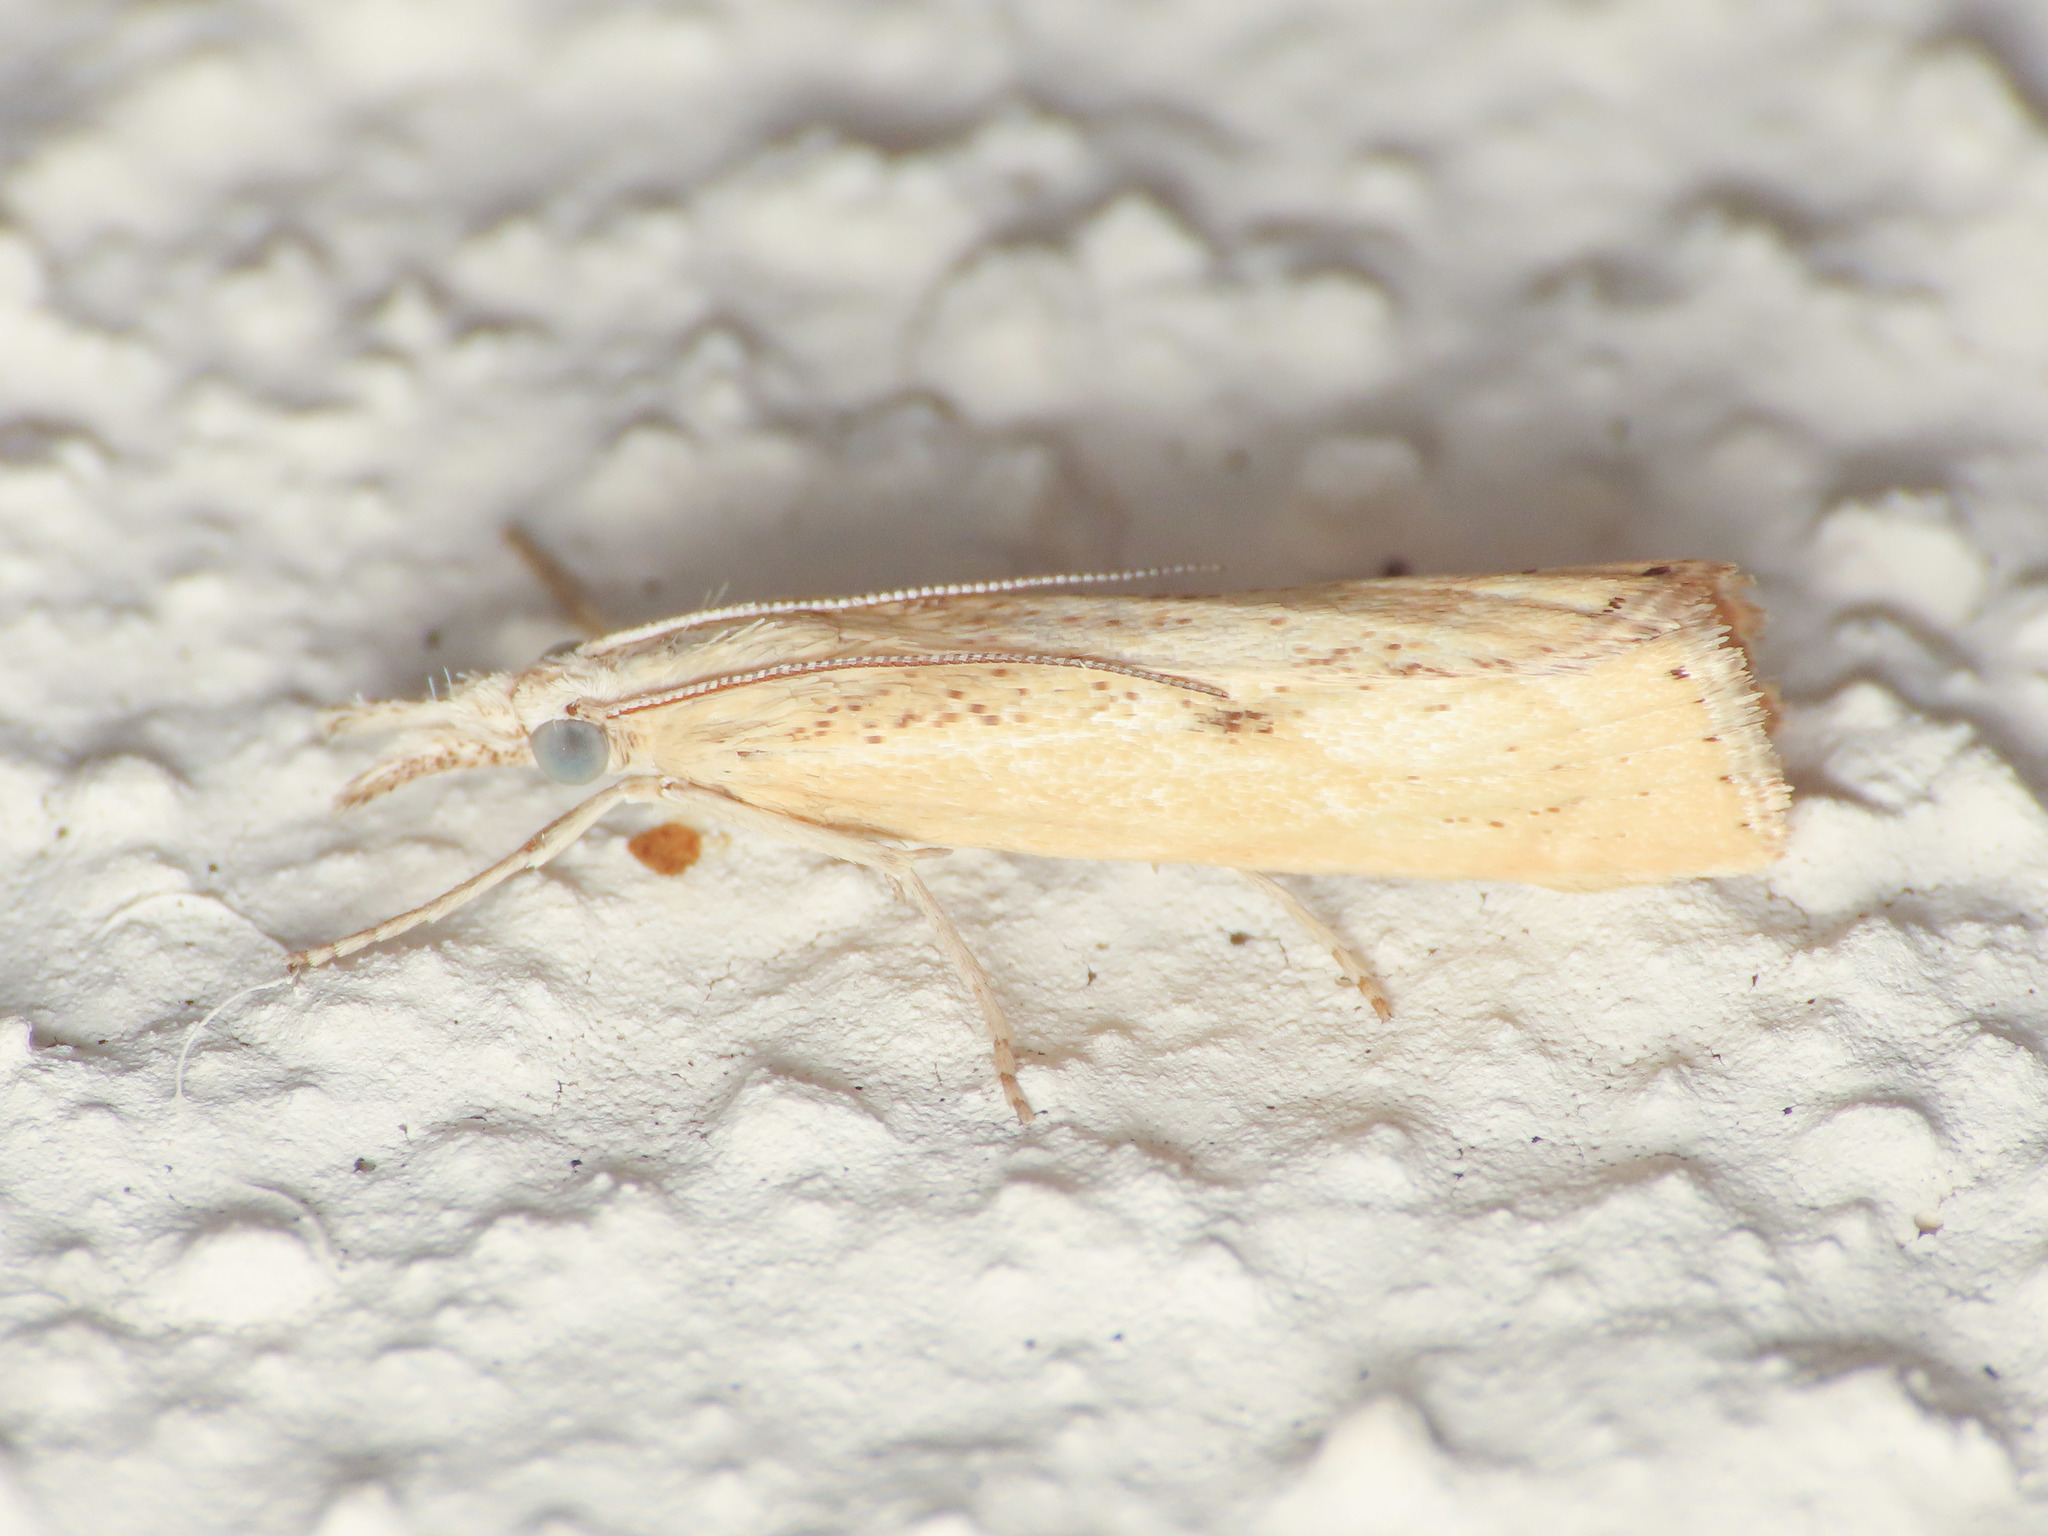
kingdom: Animalia
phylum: Arthropoda
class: Insecta
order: Lepidoptera
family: Crambidae
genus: Agriphila
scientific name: Agriphila brioniellus
